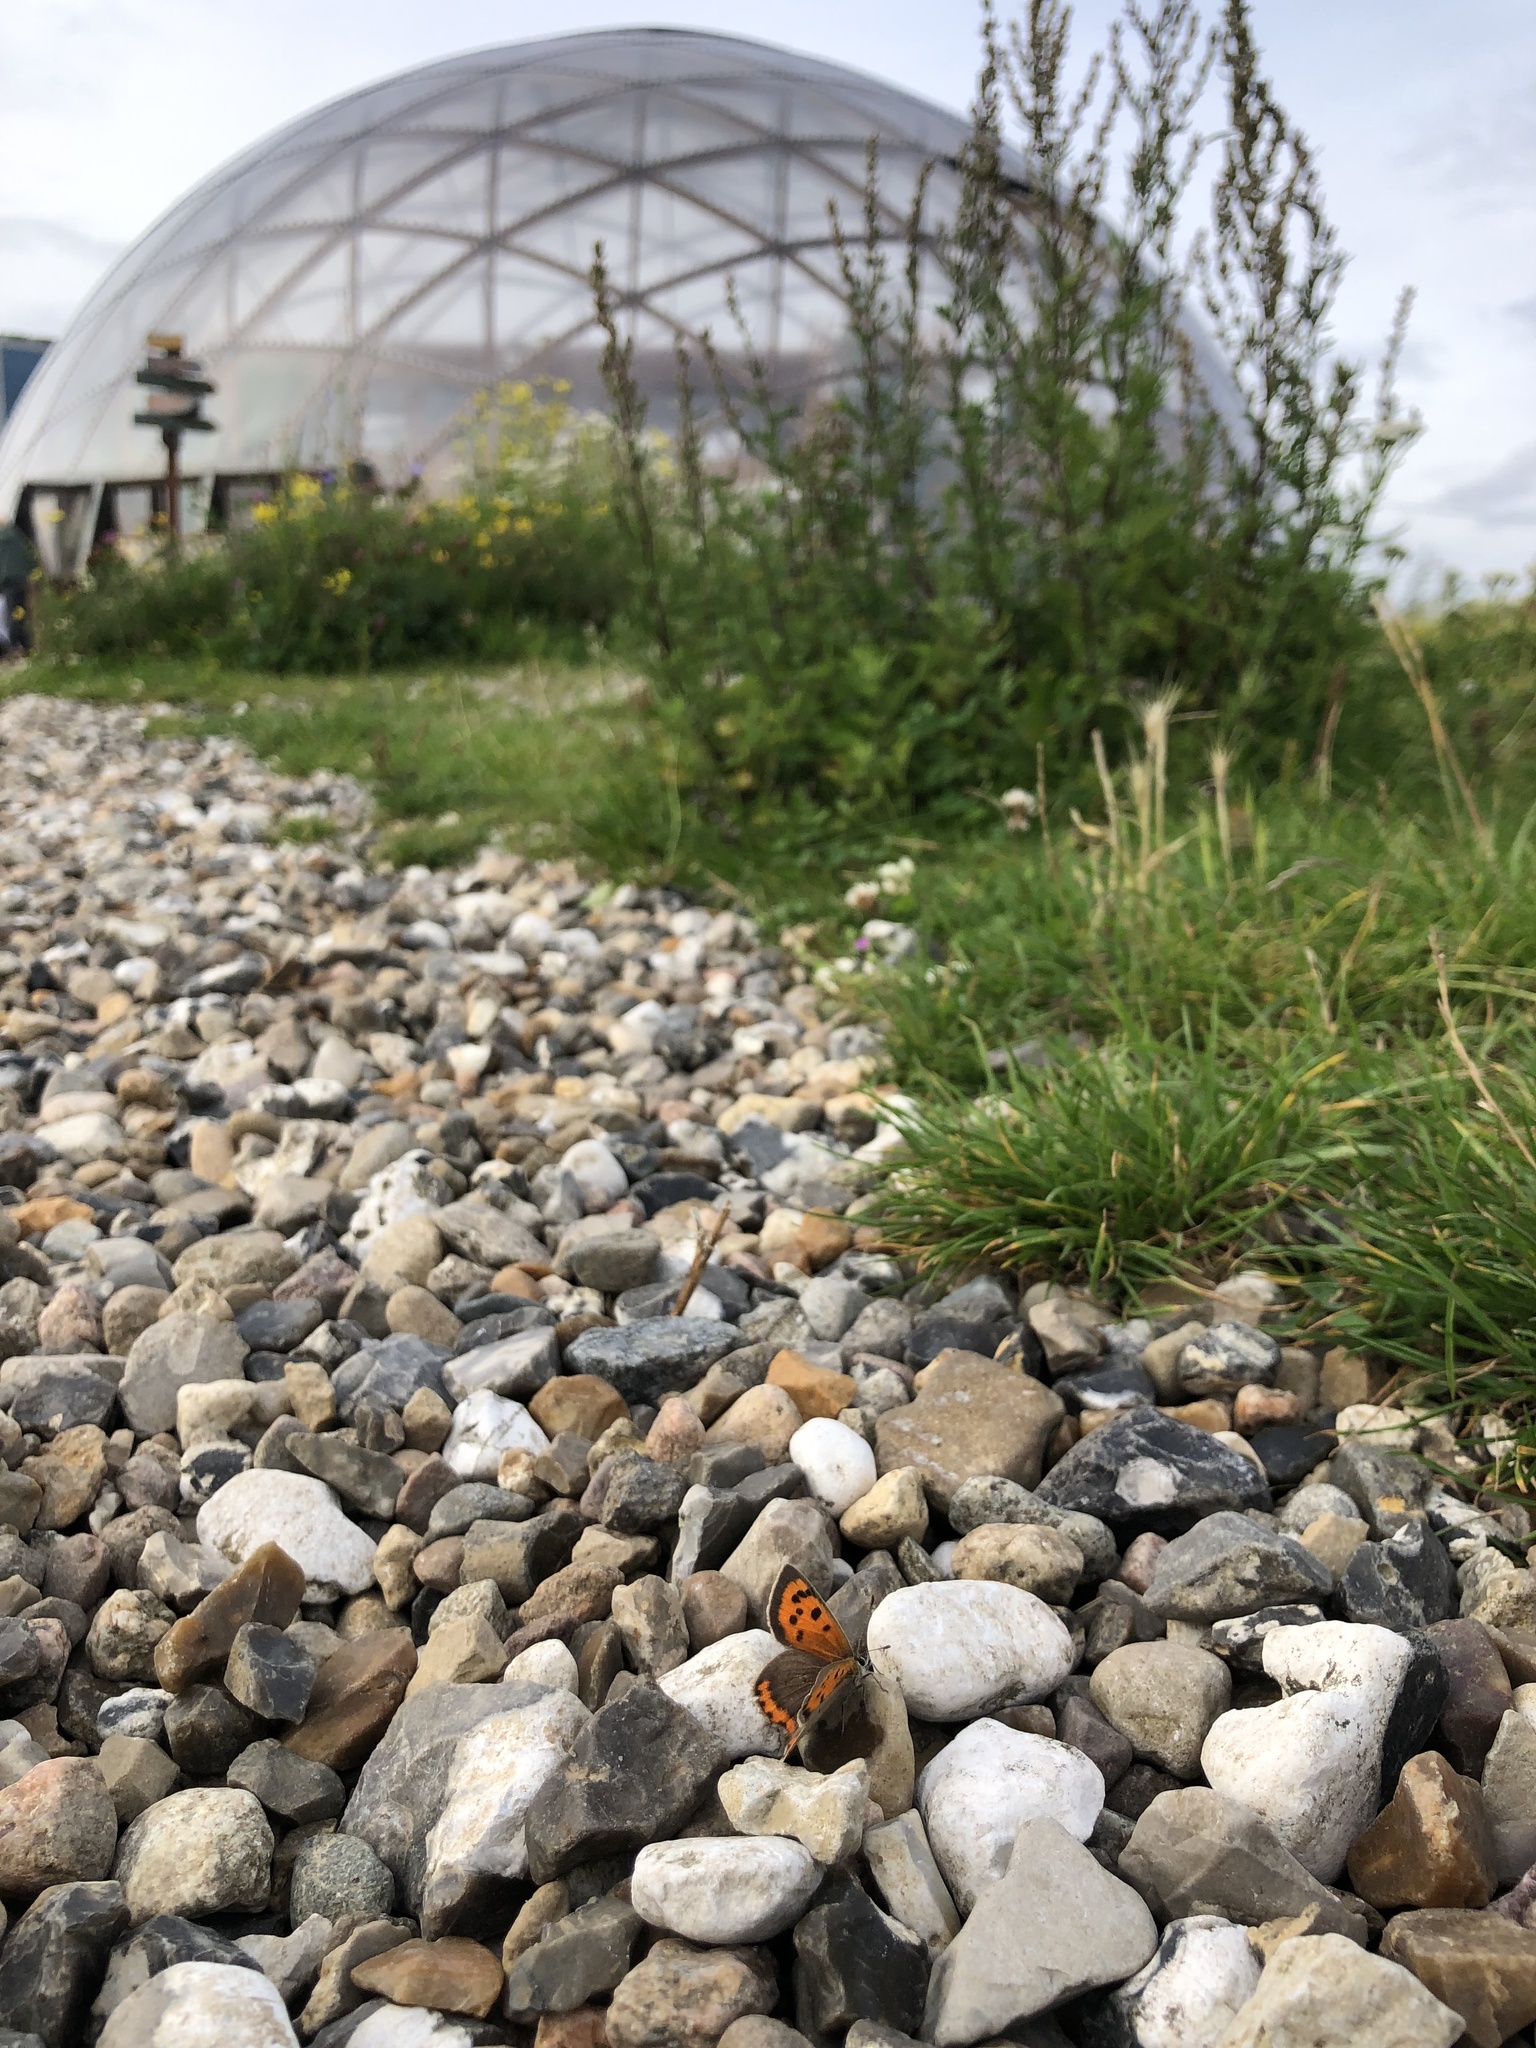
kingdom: Animalia
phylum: Arthropoda
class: Insecta
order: Lepidoptera
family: Lycaenidae
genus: Lycaena
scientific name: Lycaena phlaeas
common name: Small copper
